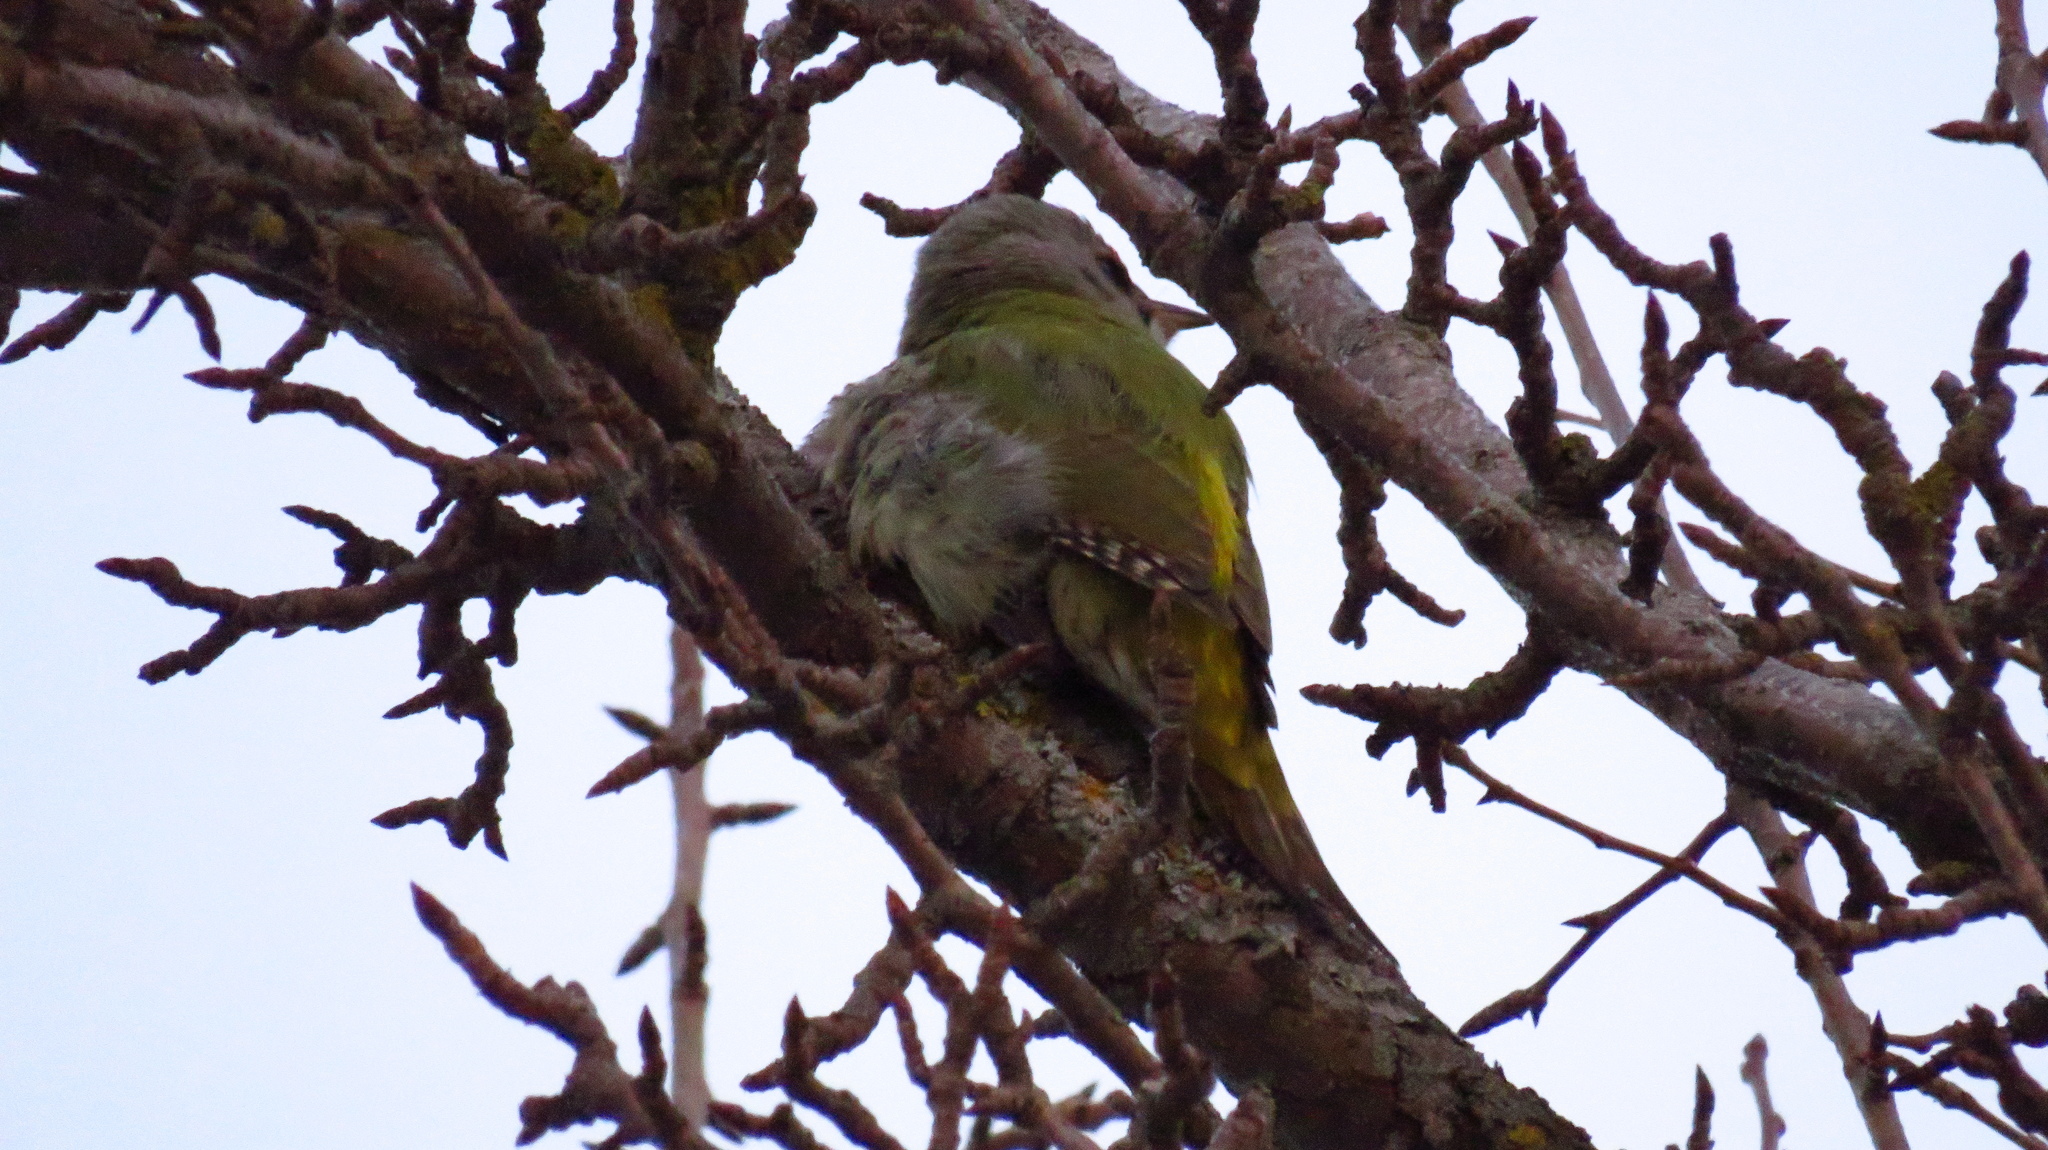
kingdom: Animalia
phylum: Chordata
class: Aves
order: Piciformes
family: Picidae
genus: Picus
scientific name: Picus canus
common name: Grey-headed woodpecker
